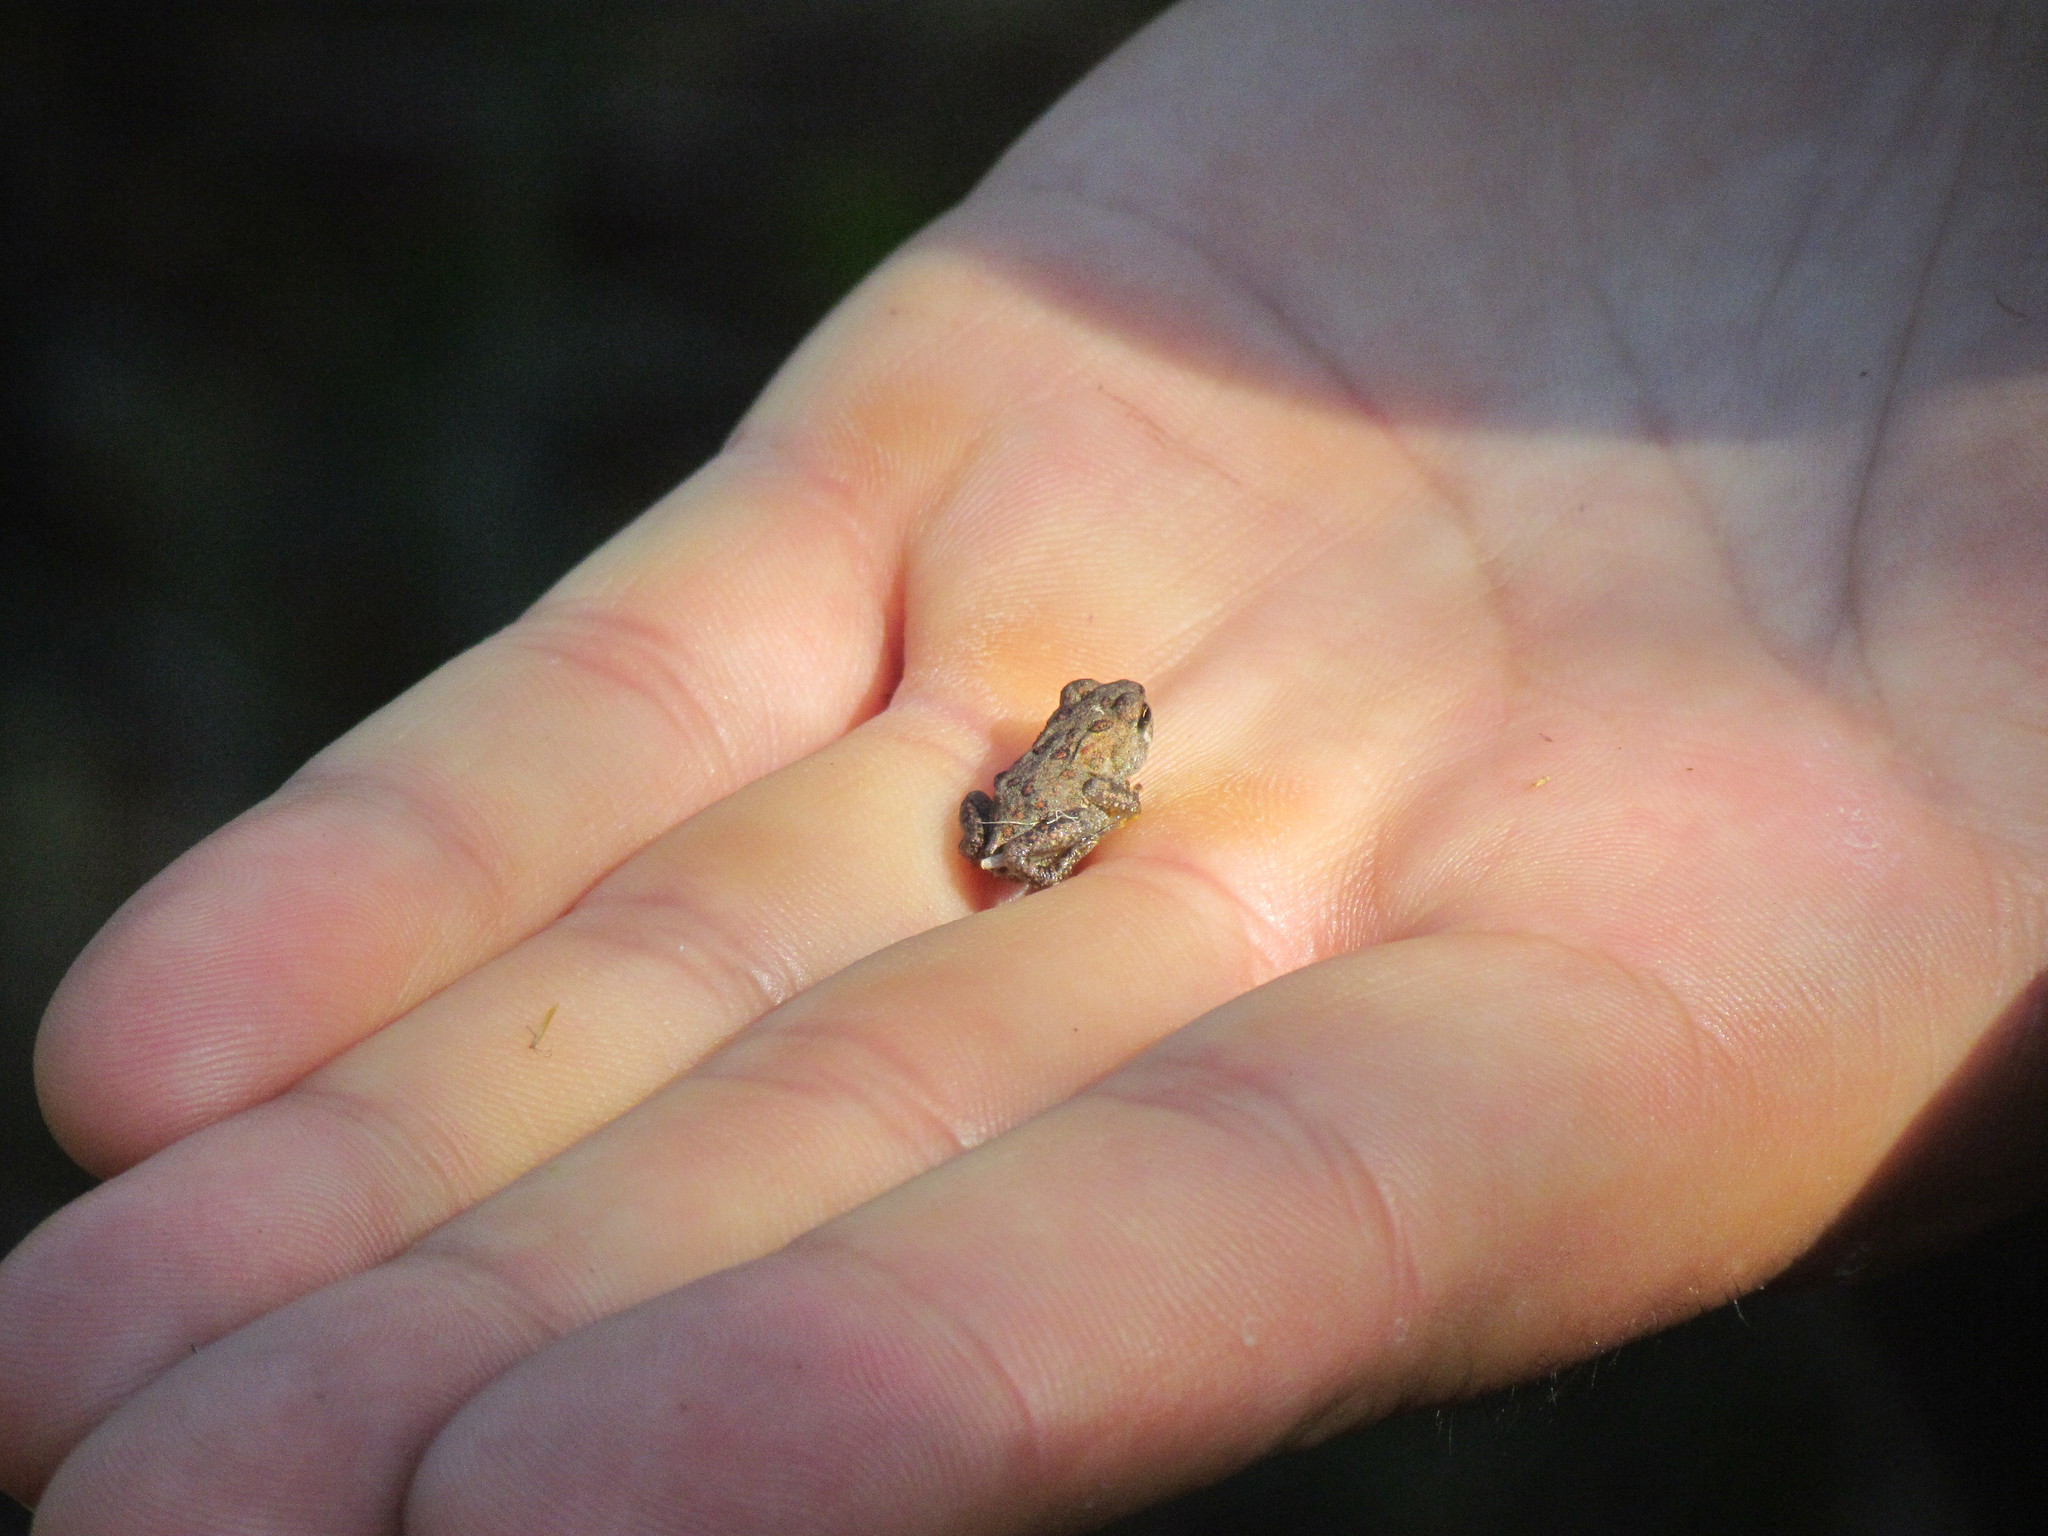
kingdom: Animalia
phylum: Chordata
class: Amphibia
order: Anura
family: Bufonidae
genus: Anaxyrus
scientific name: Anaxyrus americanus
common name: American toad
